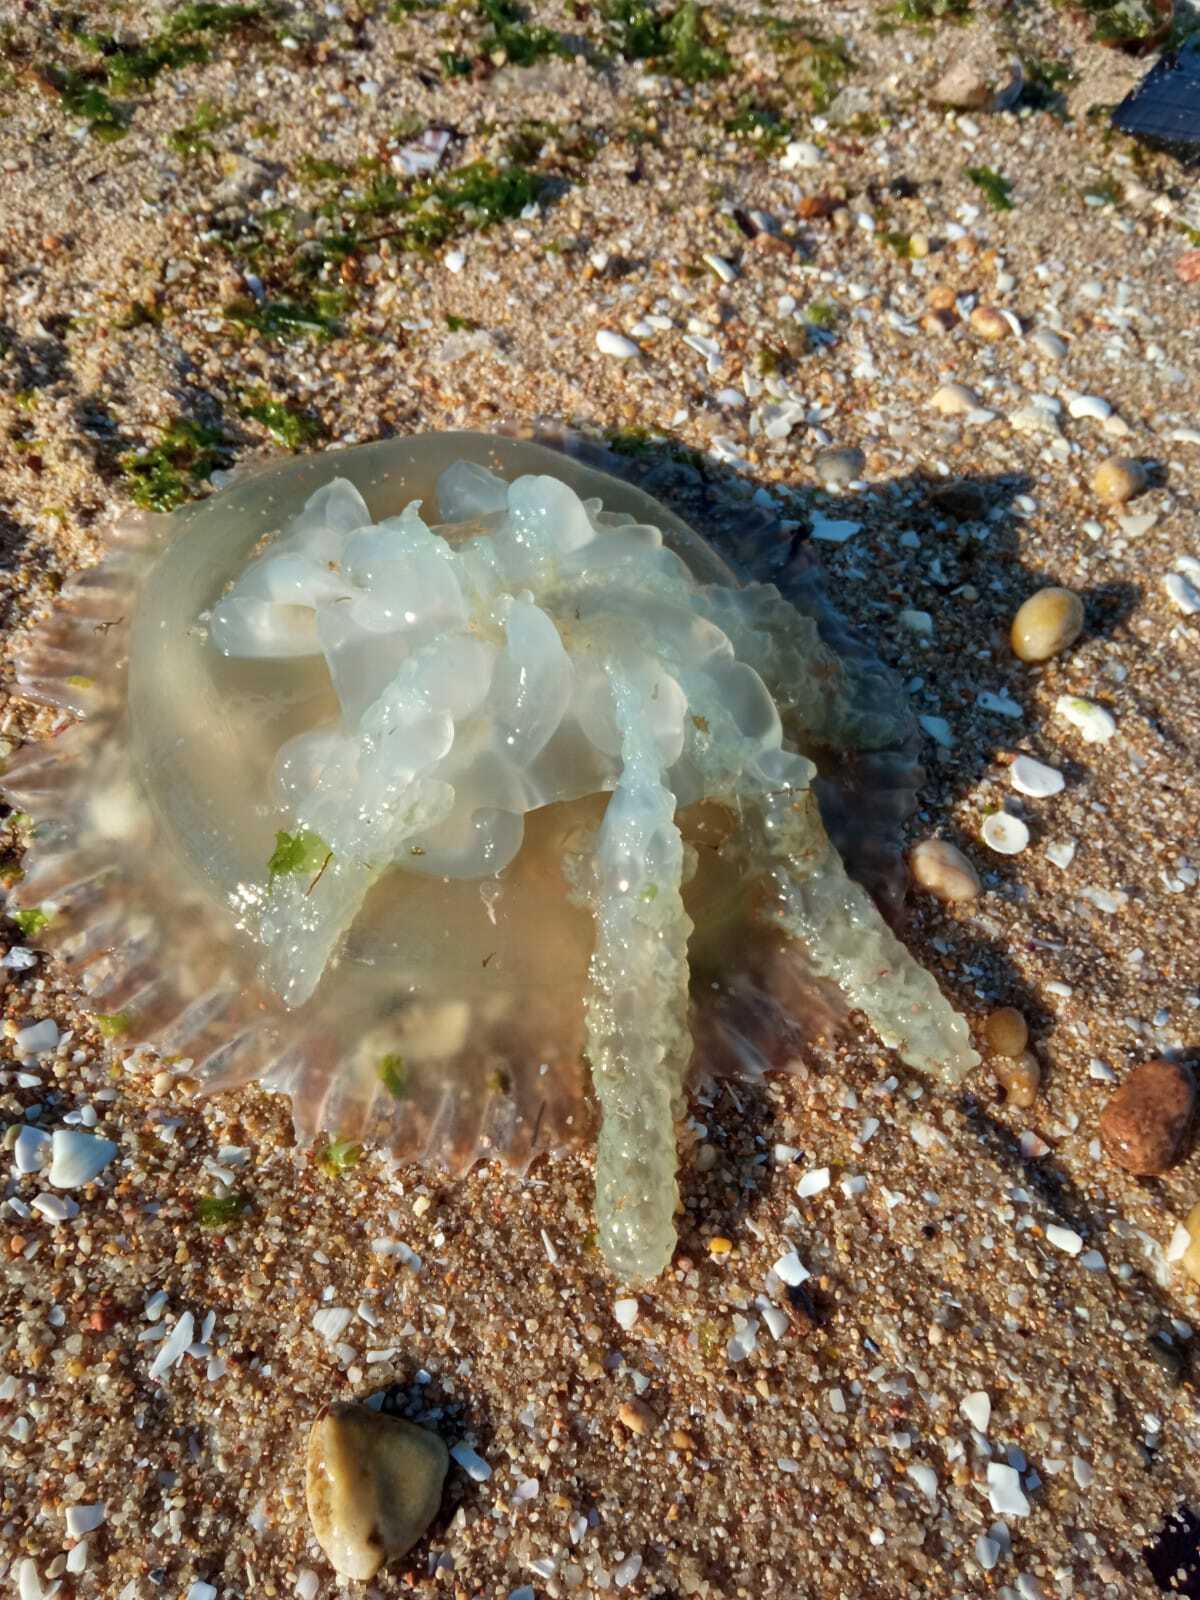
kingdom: Animalia
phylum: Cnidaria
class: Scyphozoa
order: Rhizostomeae
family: Catostylidae
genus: Catostylus
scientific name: Catostylus tagi
